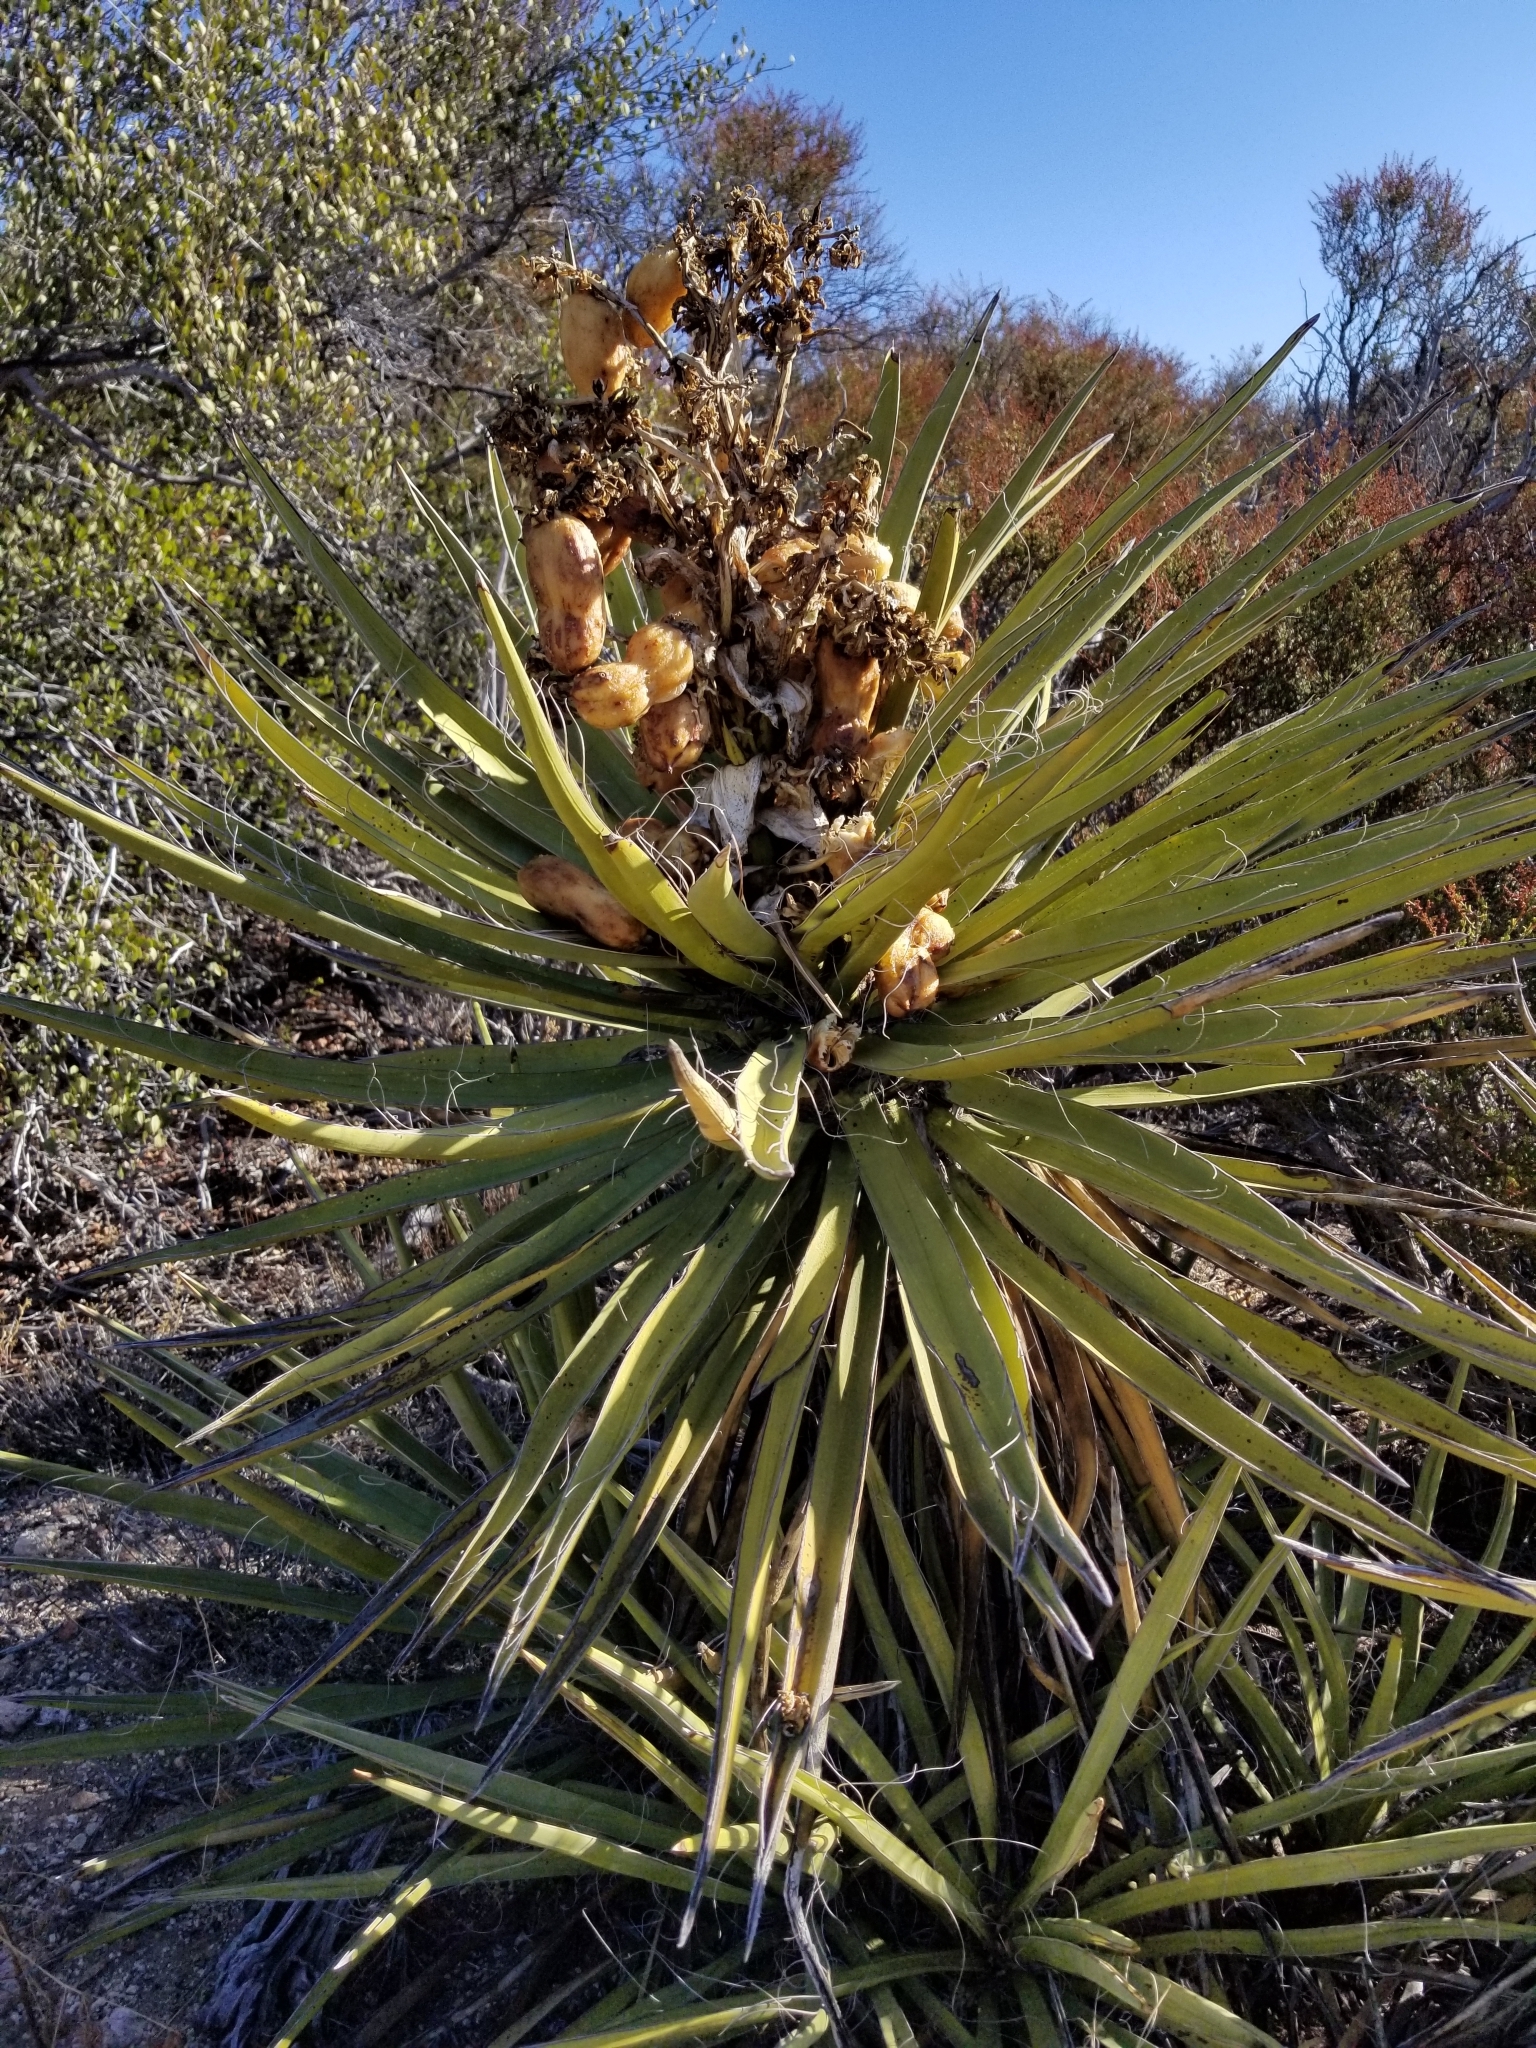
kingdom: Plantae
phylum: Tracheophyta
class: Liliopsida
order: Asparagales
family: Asparagaceae
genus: Yucca
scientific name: Yucca schidigera
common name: Mojave yucca
